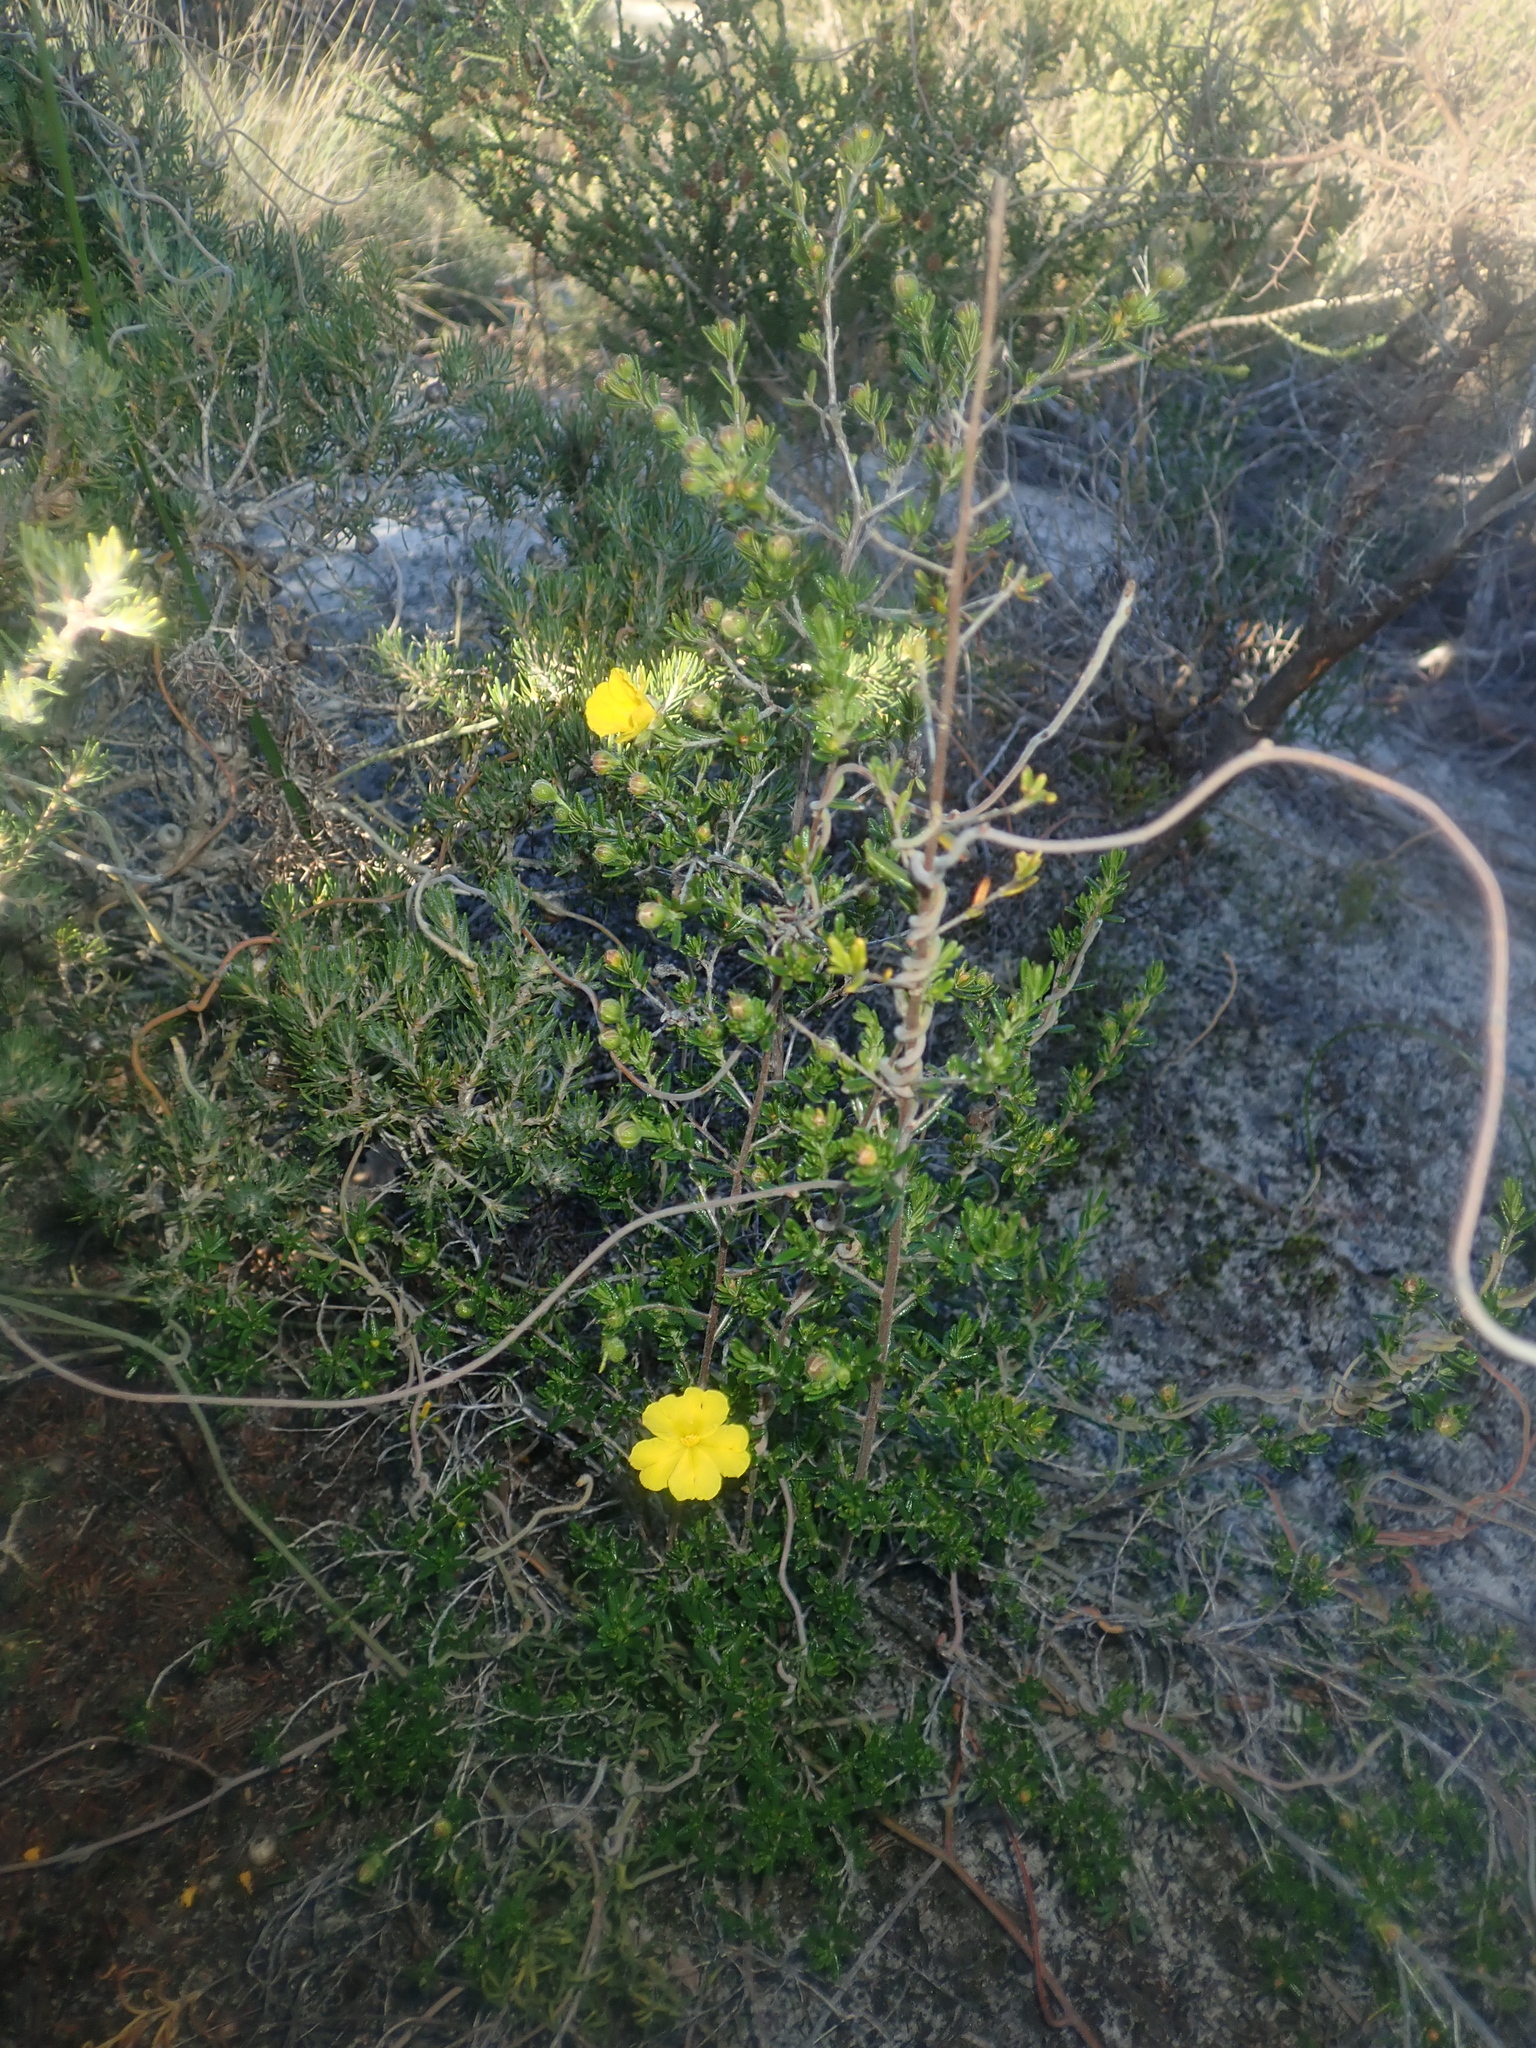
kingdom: Plantae
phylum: Tracheophyta
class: Magnoliopsida
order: Dilleniales
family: Dilleniaceae
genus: Hibbertia
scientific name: Hibbertia hypericoides
